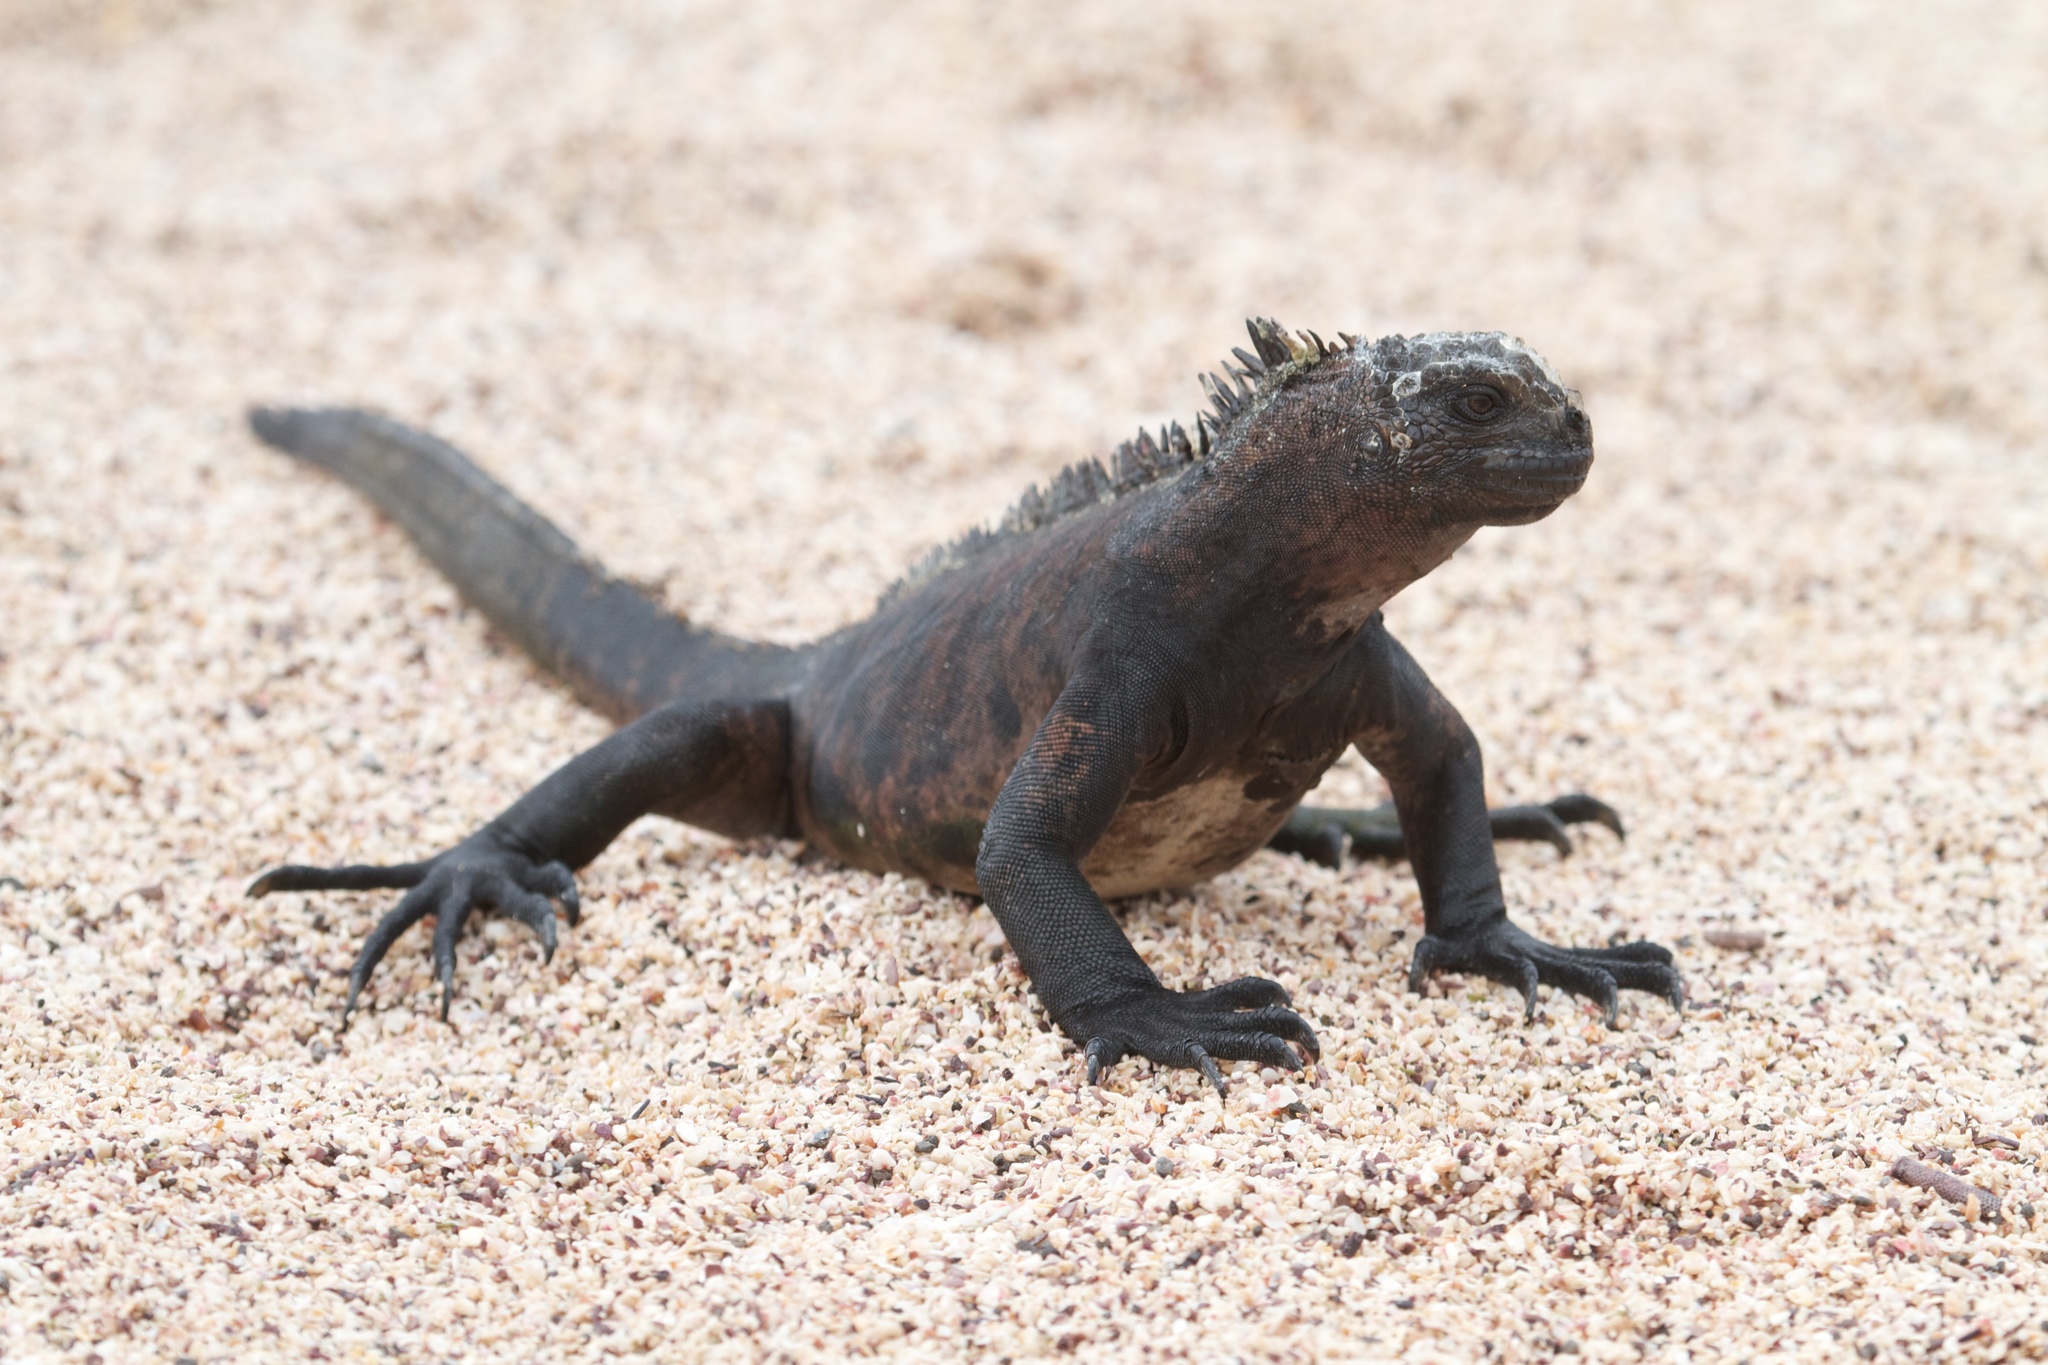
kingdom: Animalia
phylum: Chordata
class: Squamata
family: Iguanidae
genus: Amblyrhynchus
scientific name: Amblyrhynchus cristatus
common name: Marine iguana
